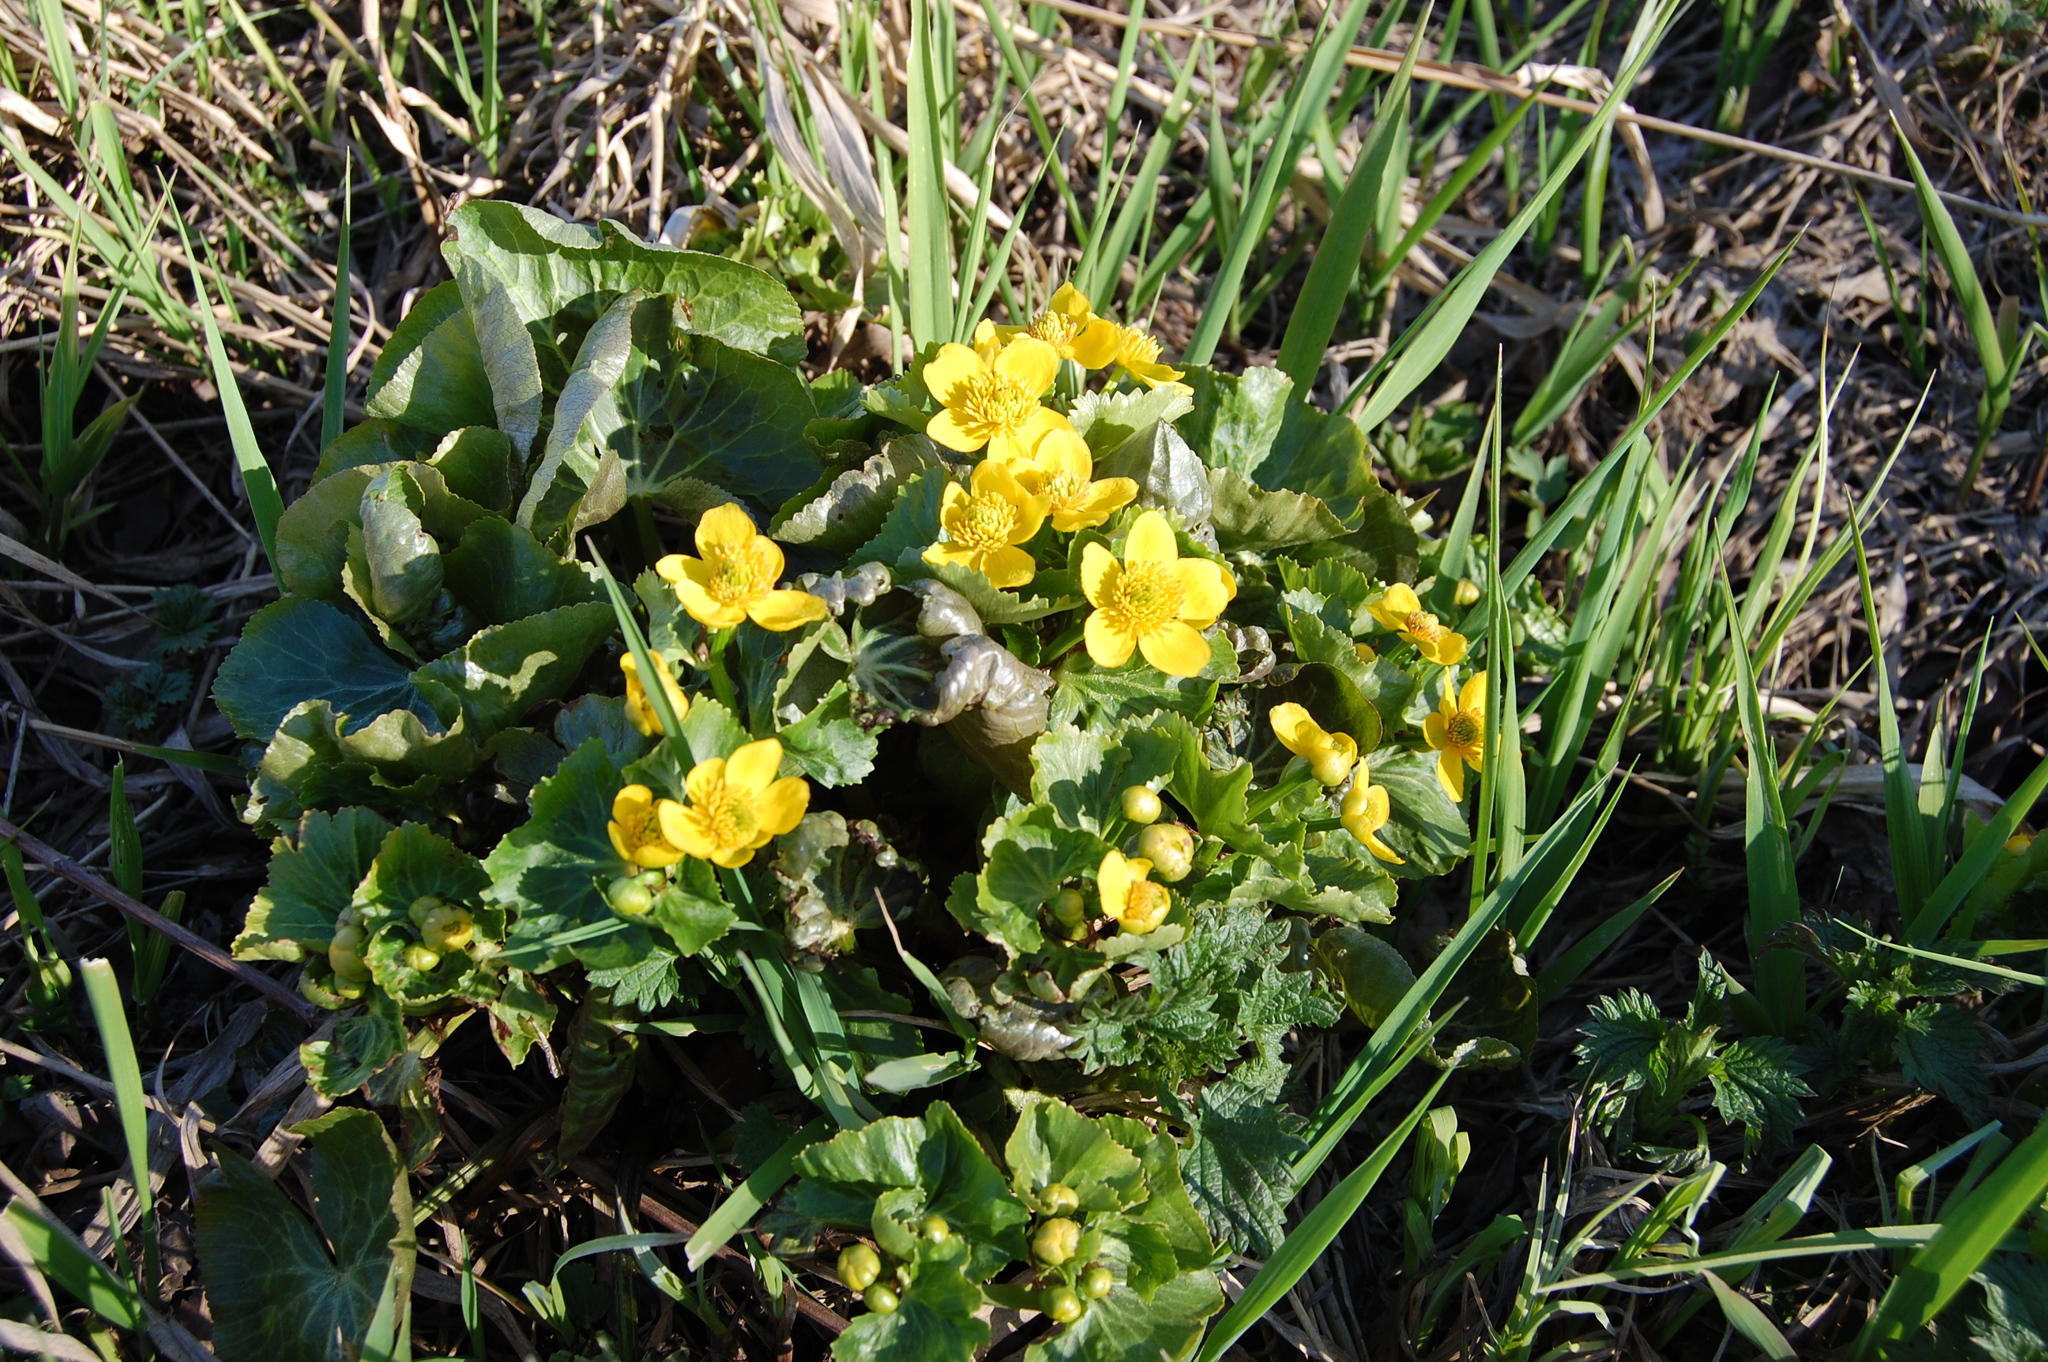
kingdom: Plantae
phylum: Tracheophyta
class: Magnoliopsida
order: Ranunculales
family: Ranunculaceae
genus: Caltha
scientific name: Caltha palustris
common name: Marsh marigold
